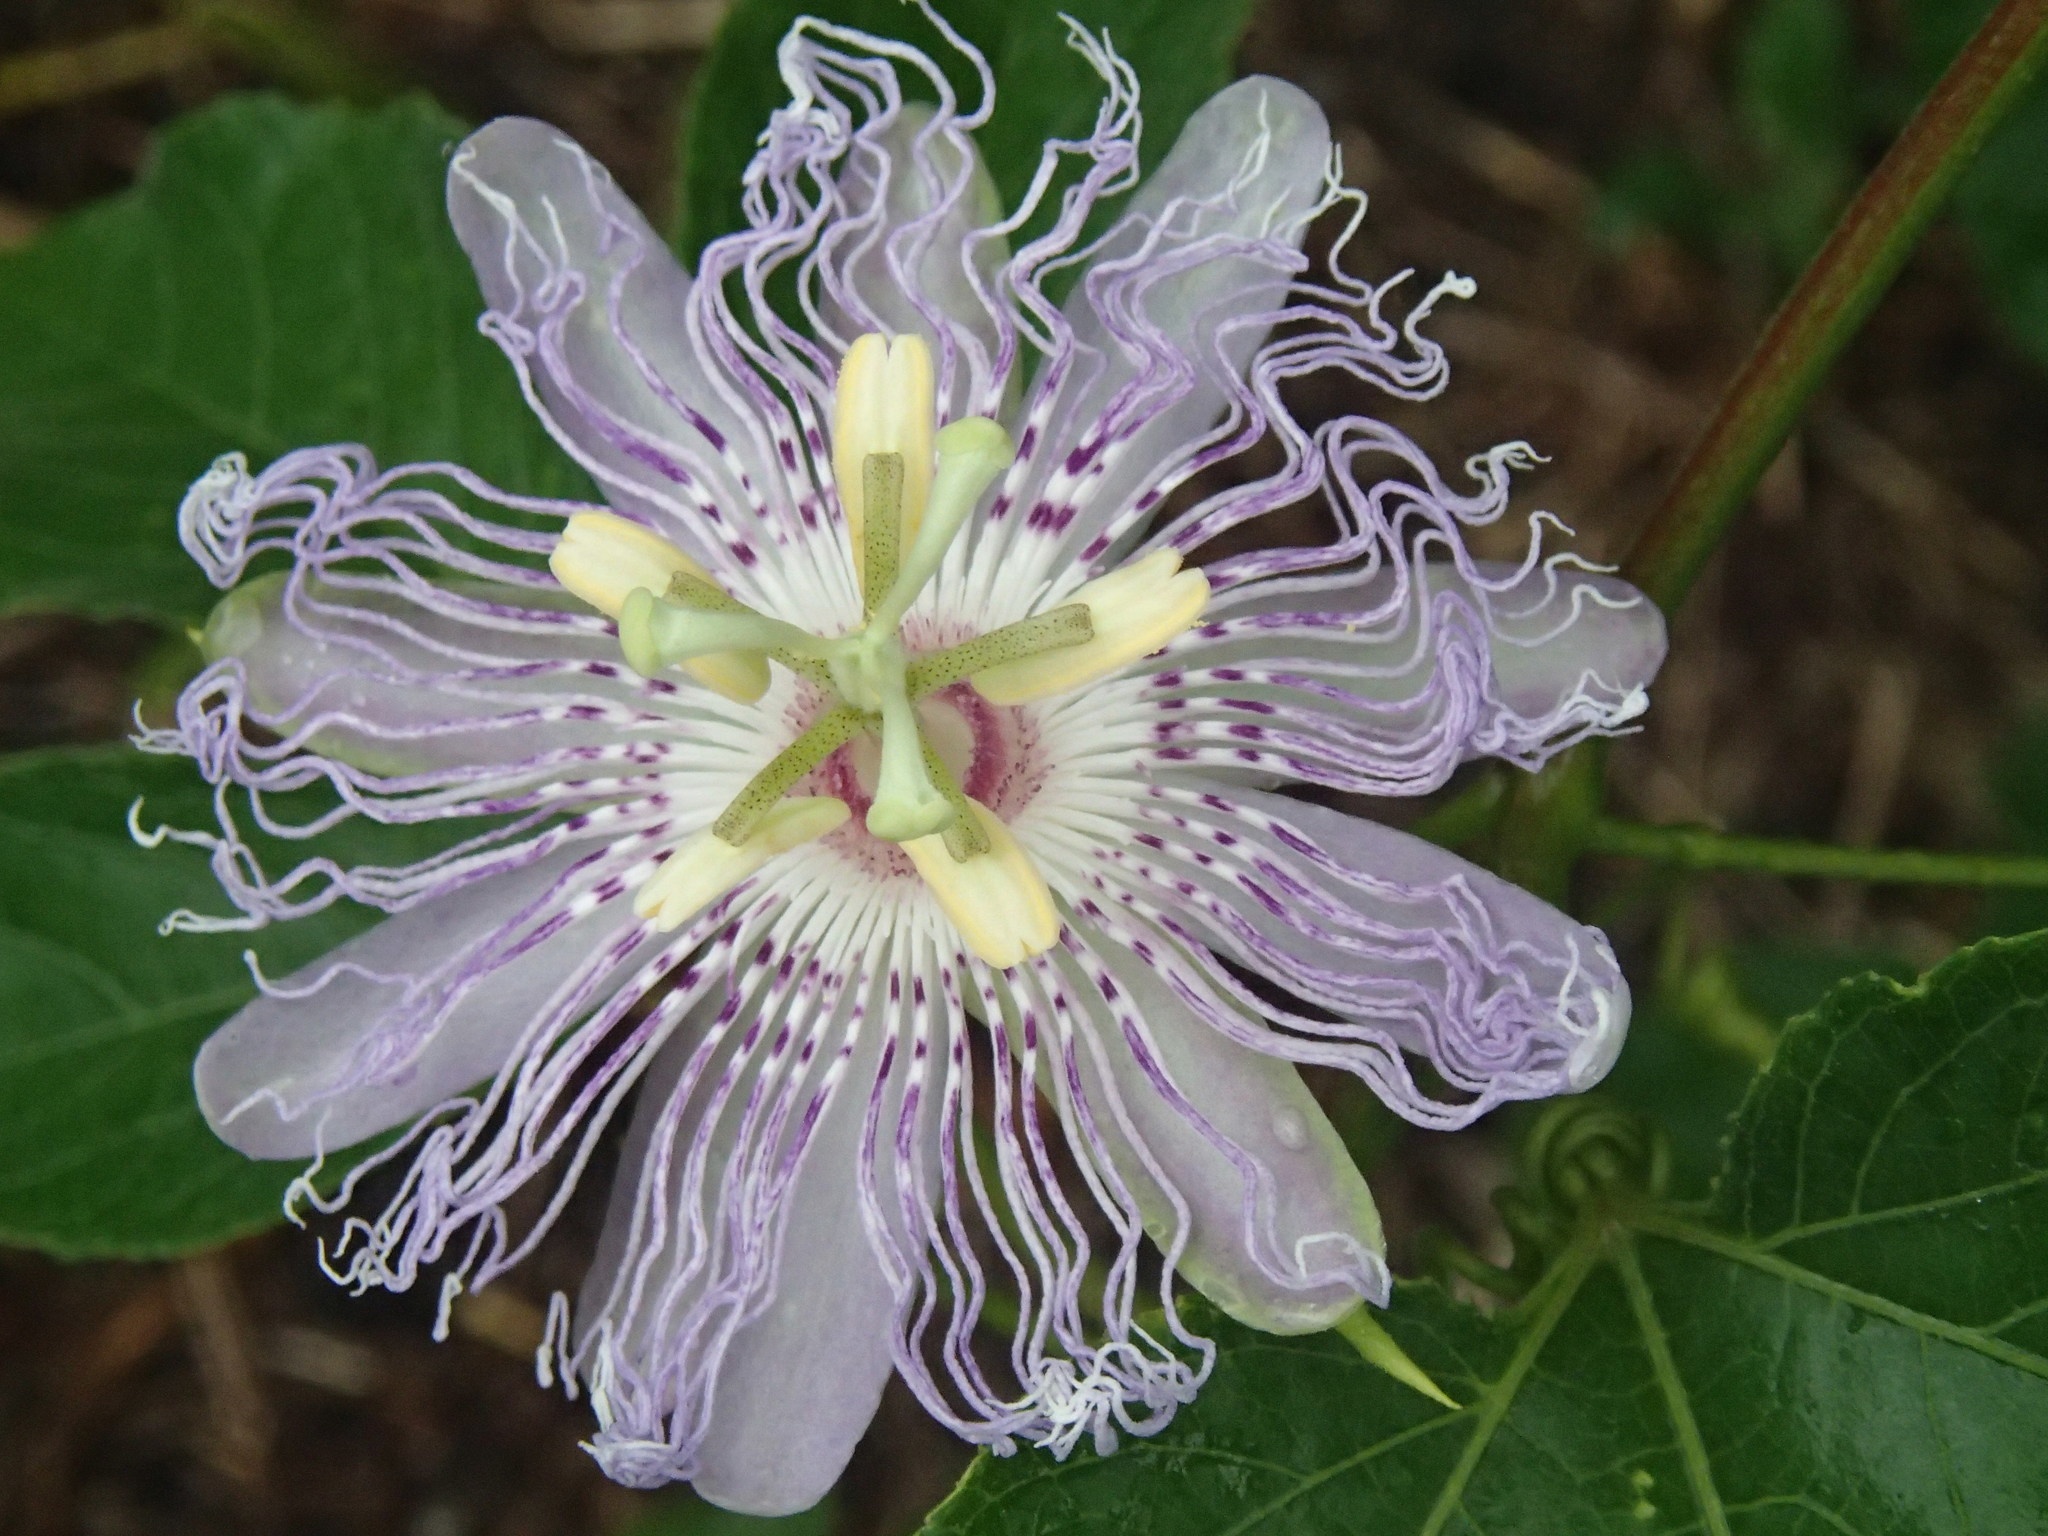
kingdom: Plantae
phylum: Tracheophyta
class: Magnoliopsida
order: Malpighiales
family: Passifloraceae
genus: Passiflora
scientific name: Passiflora incarnata
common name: Apricot-vine
